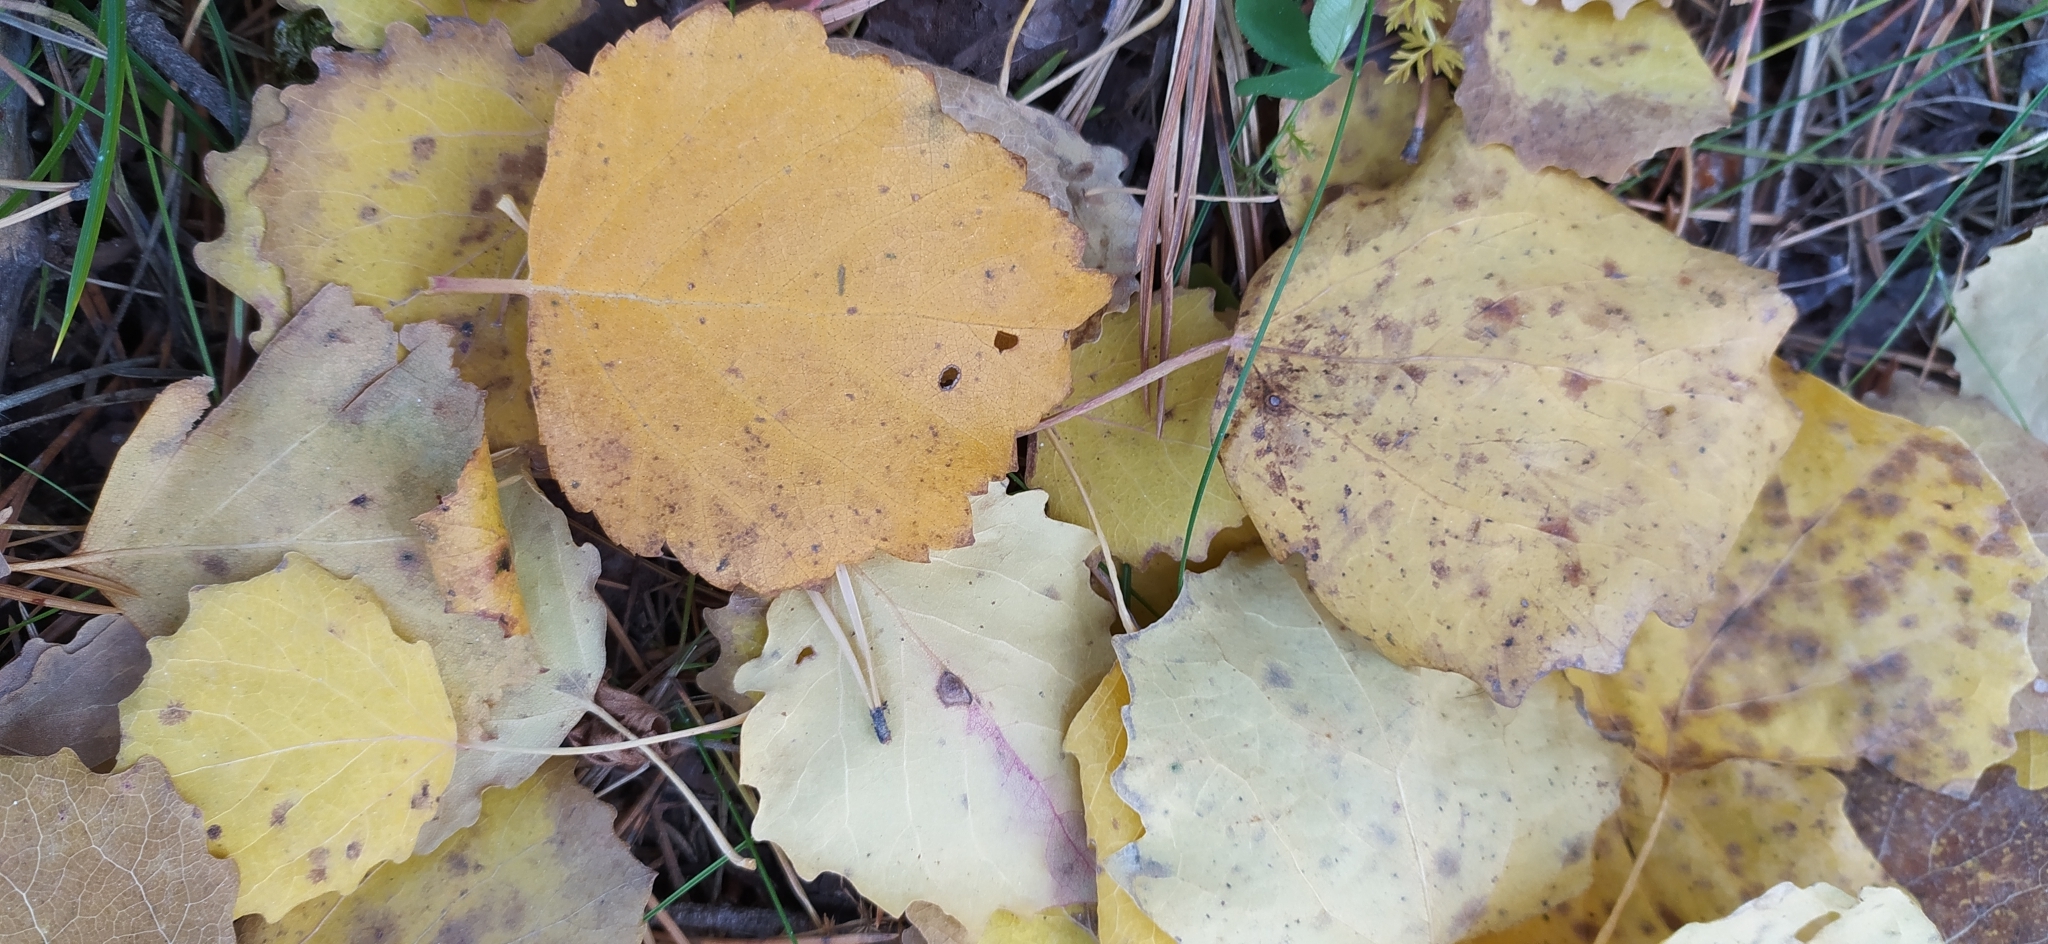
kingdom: Plantae
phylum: Tracheophyta
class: Magnoliopsida
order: Malpighiales
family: Salicaceae
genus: Populus
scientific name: Populus tremula
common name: European aspen
